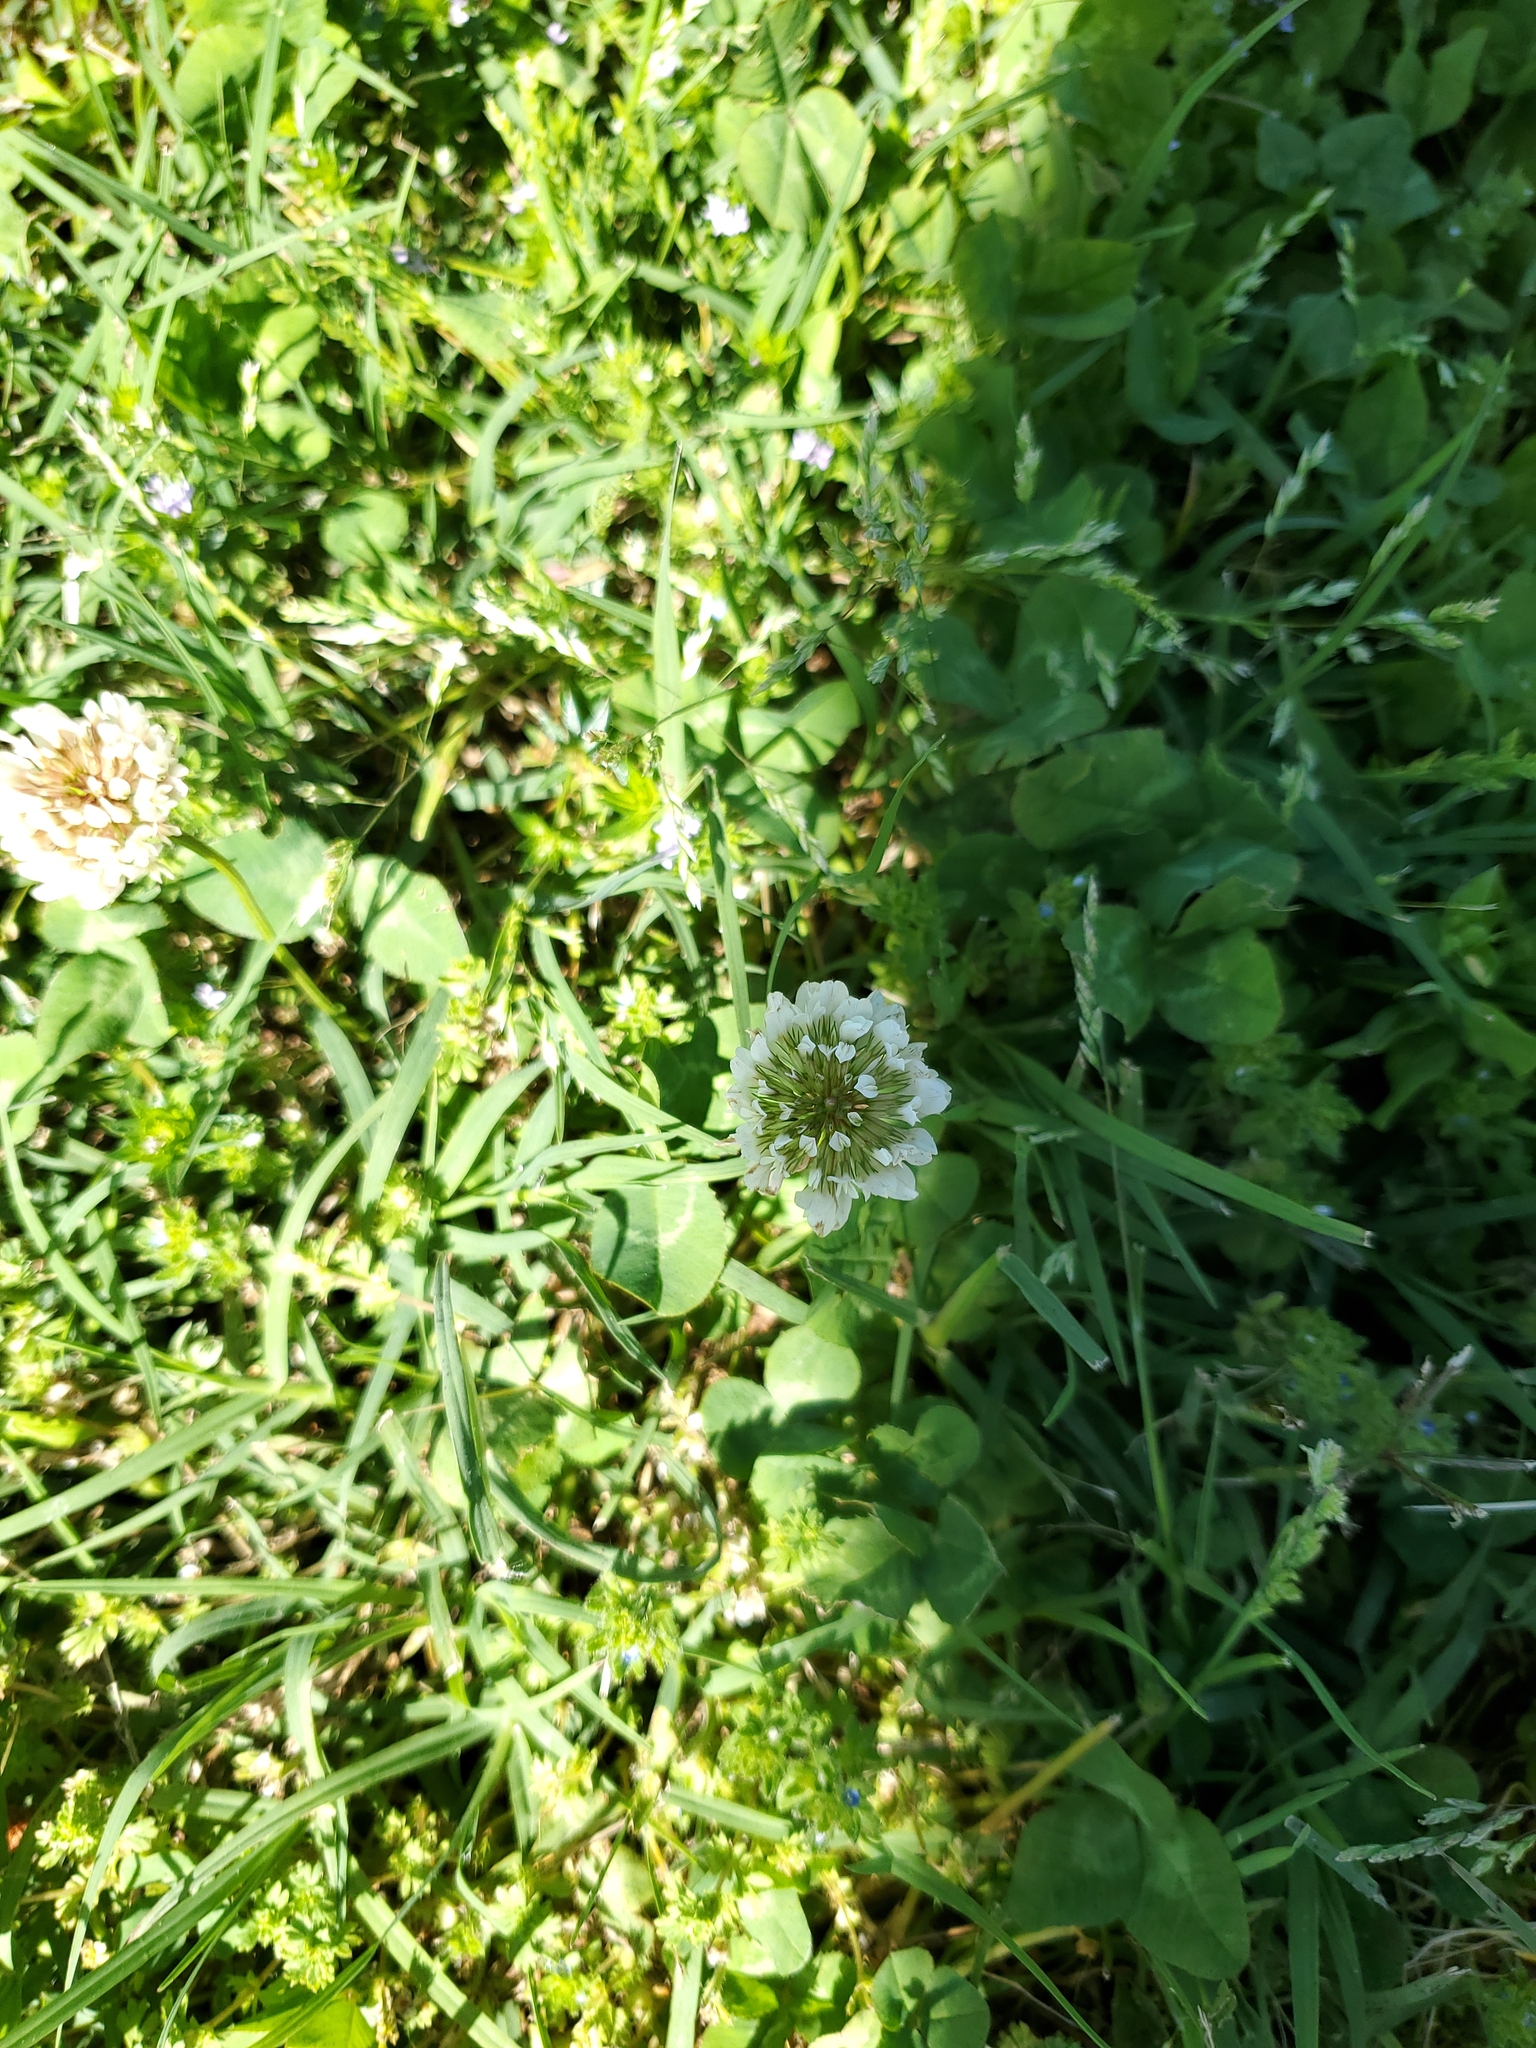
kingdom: Plantae
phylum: Tracheophyta
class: Magnoliopsida
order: Fabales
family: Fabaceae
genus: Trifolium
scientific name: Trifolium repens
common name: White clover
